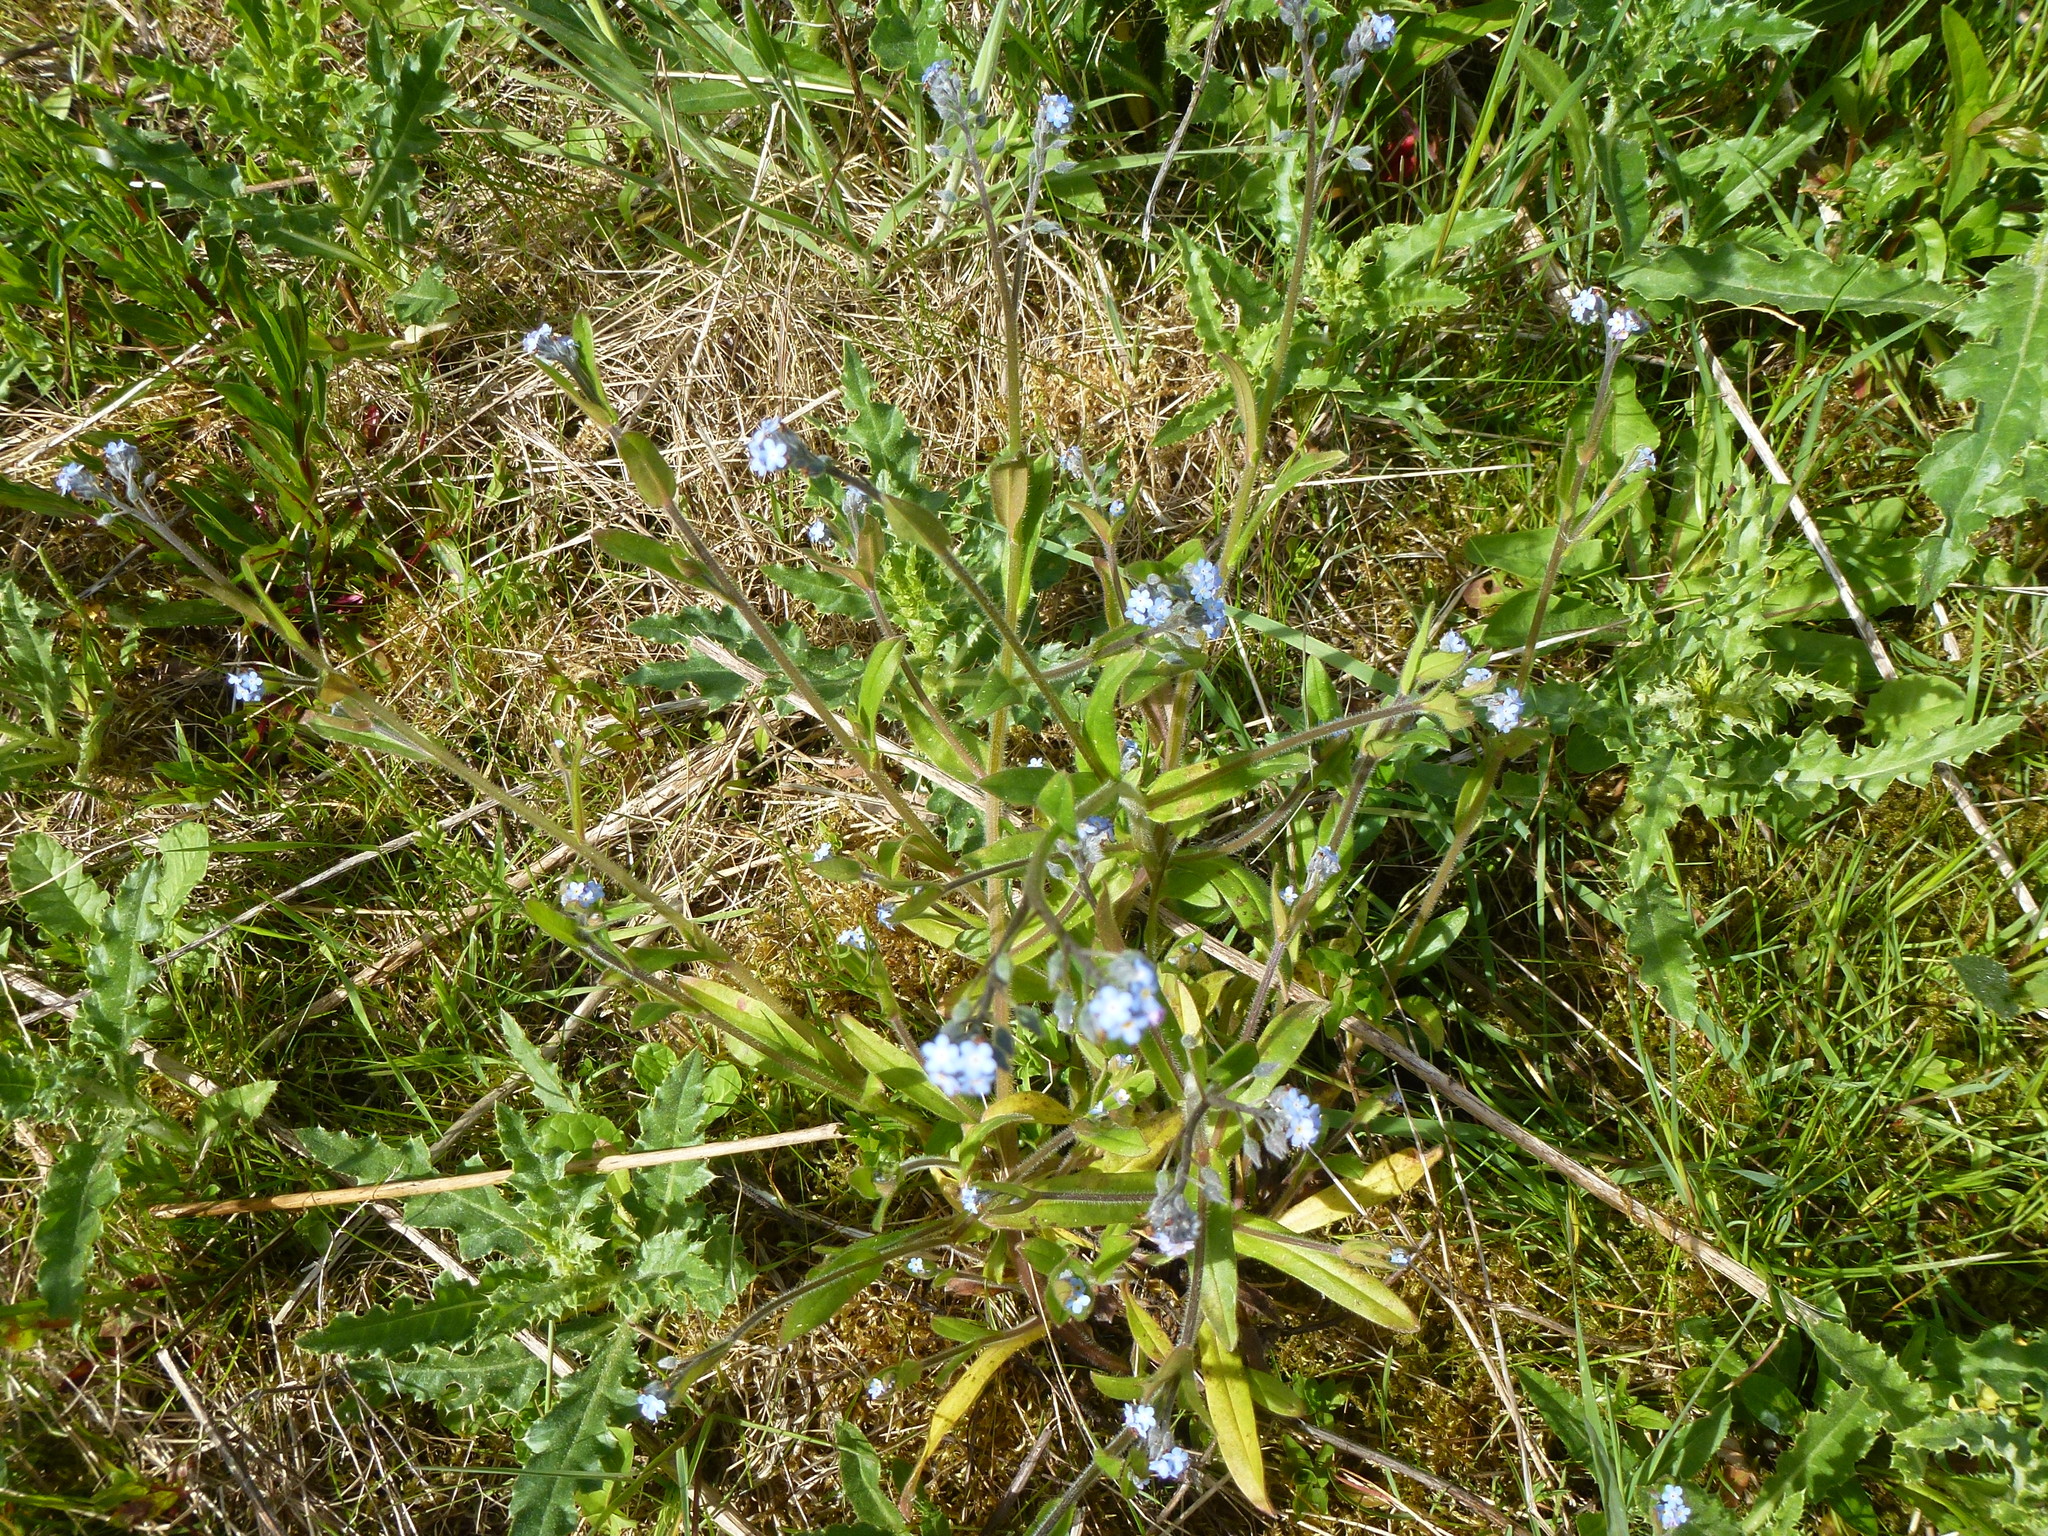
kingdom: Plantae
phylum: Tracheophyta
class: Magnoliopsida
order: Boraginales
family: Boraginaceae
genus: Myosotis
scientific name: Myosotis arvensis
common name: Field forget-me-not
